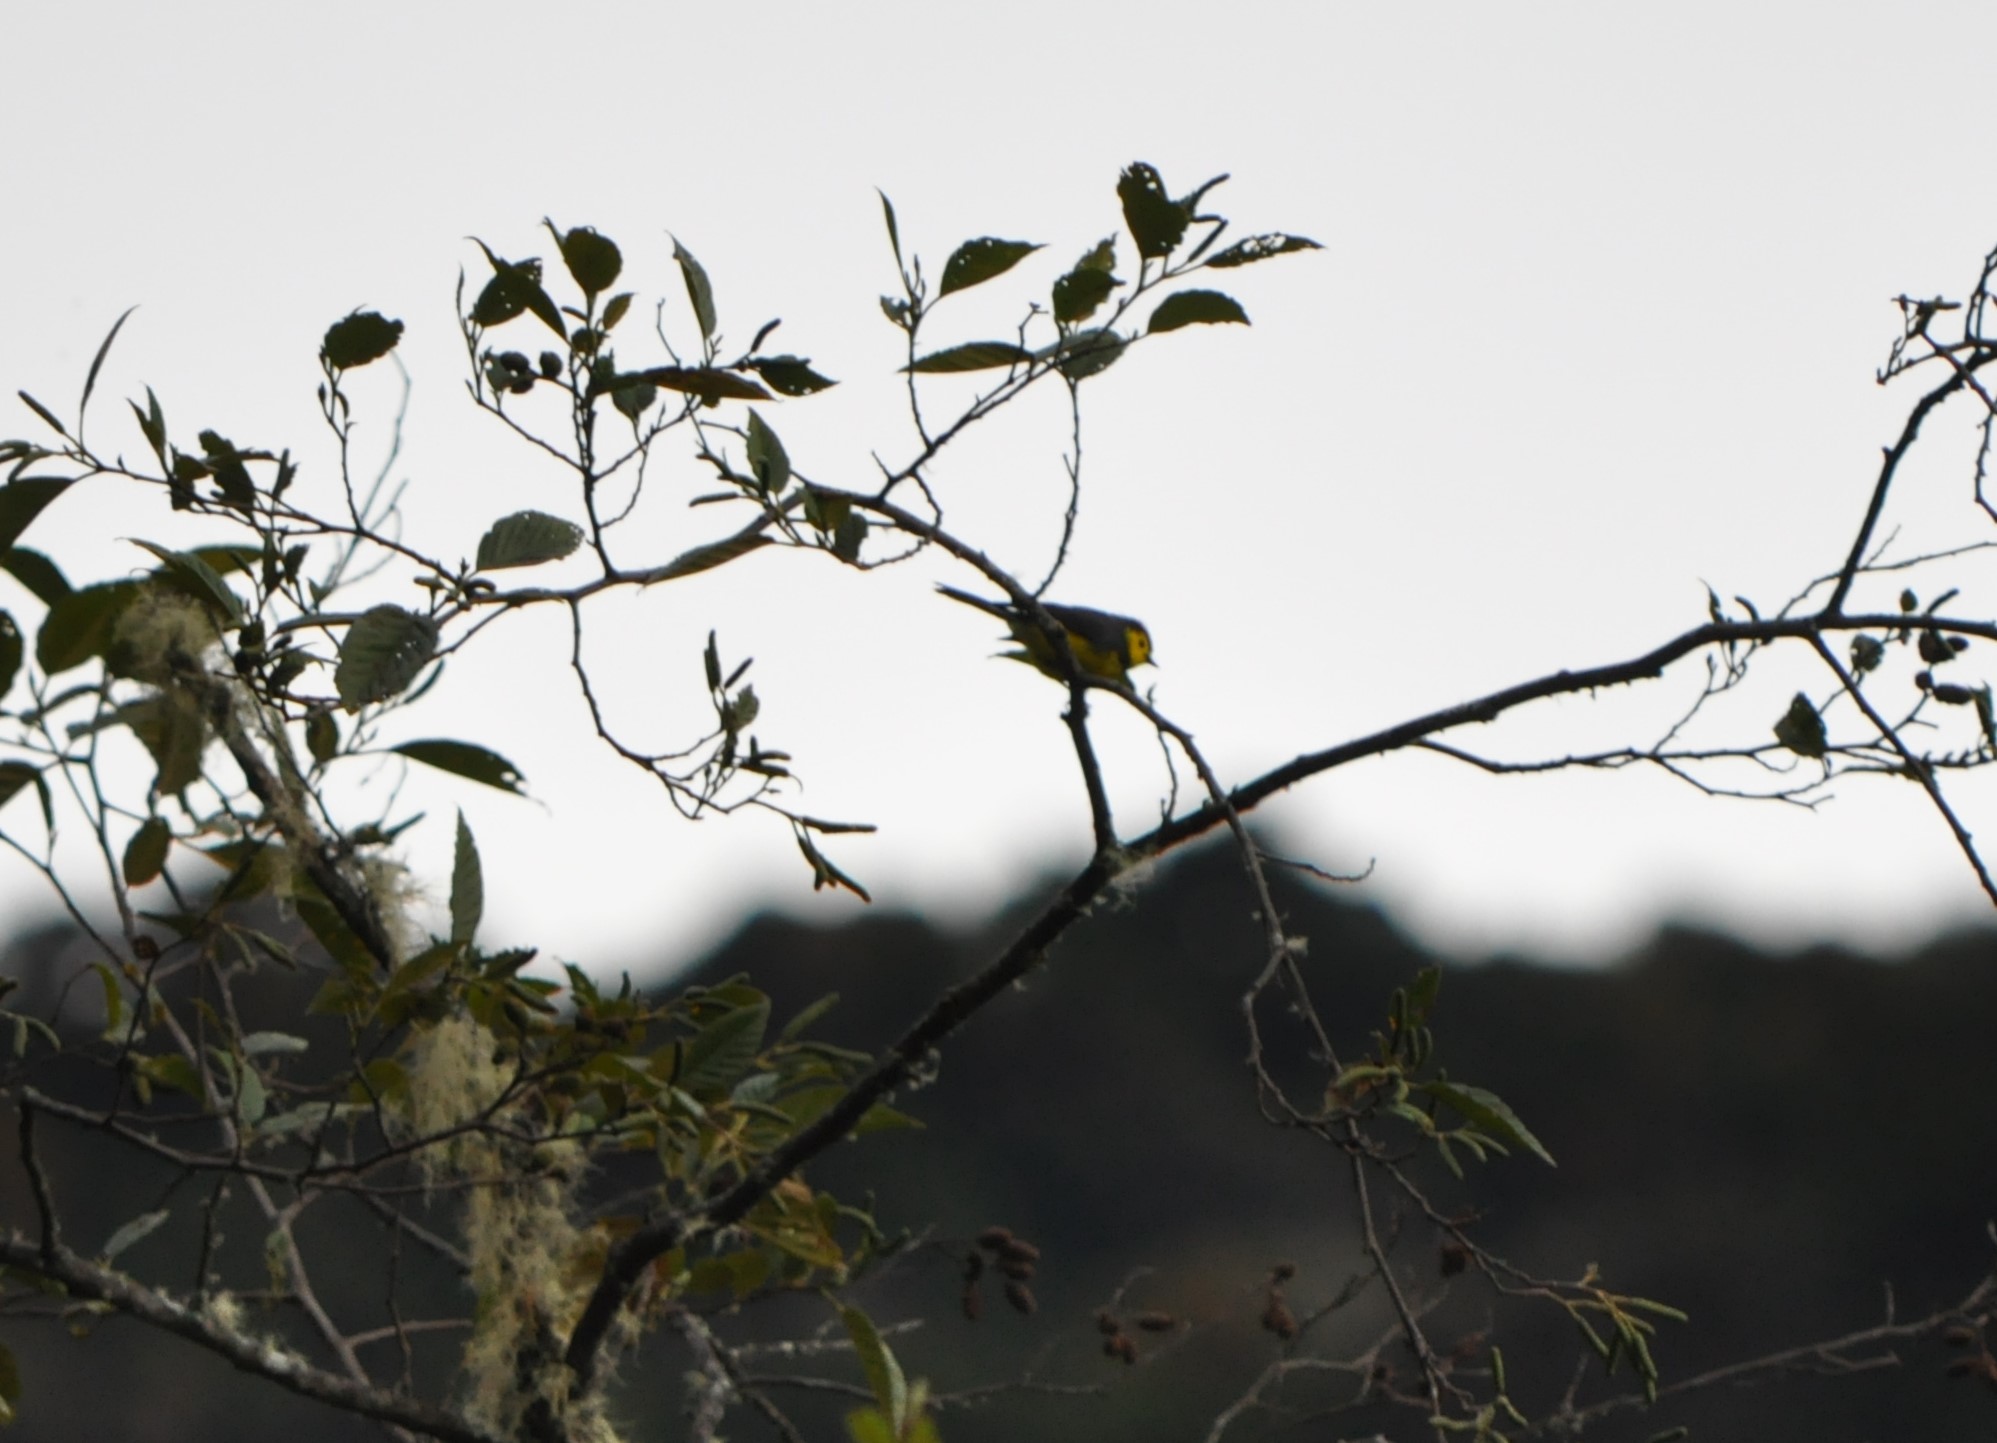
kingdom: Animalia
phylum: Chordata
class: Aves
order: Passeriformes
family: Parulidae
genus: Myioborus
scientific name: Myioborus torquatus
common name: Collared whitestart
